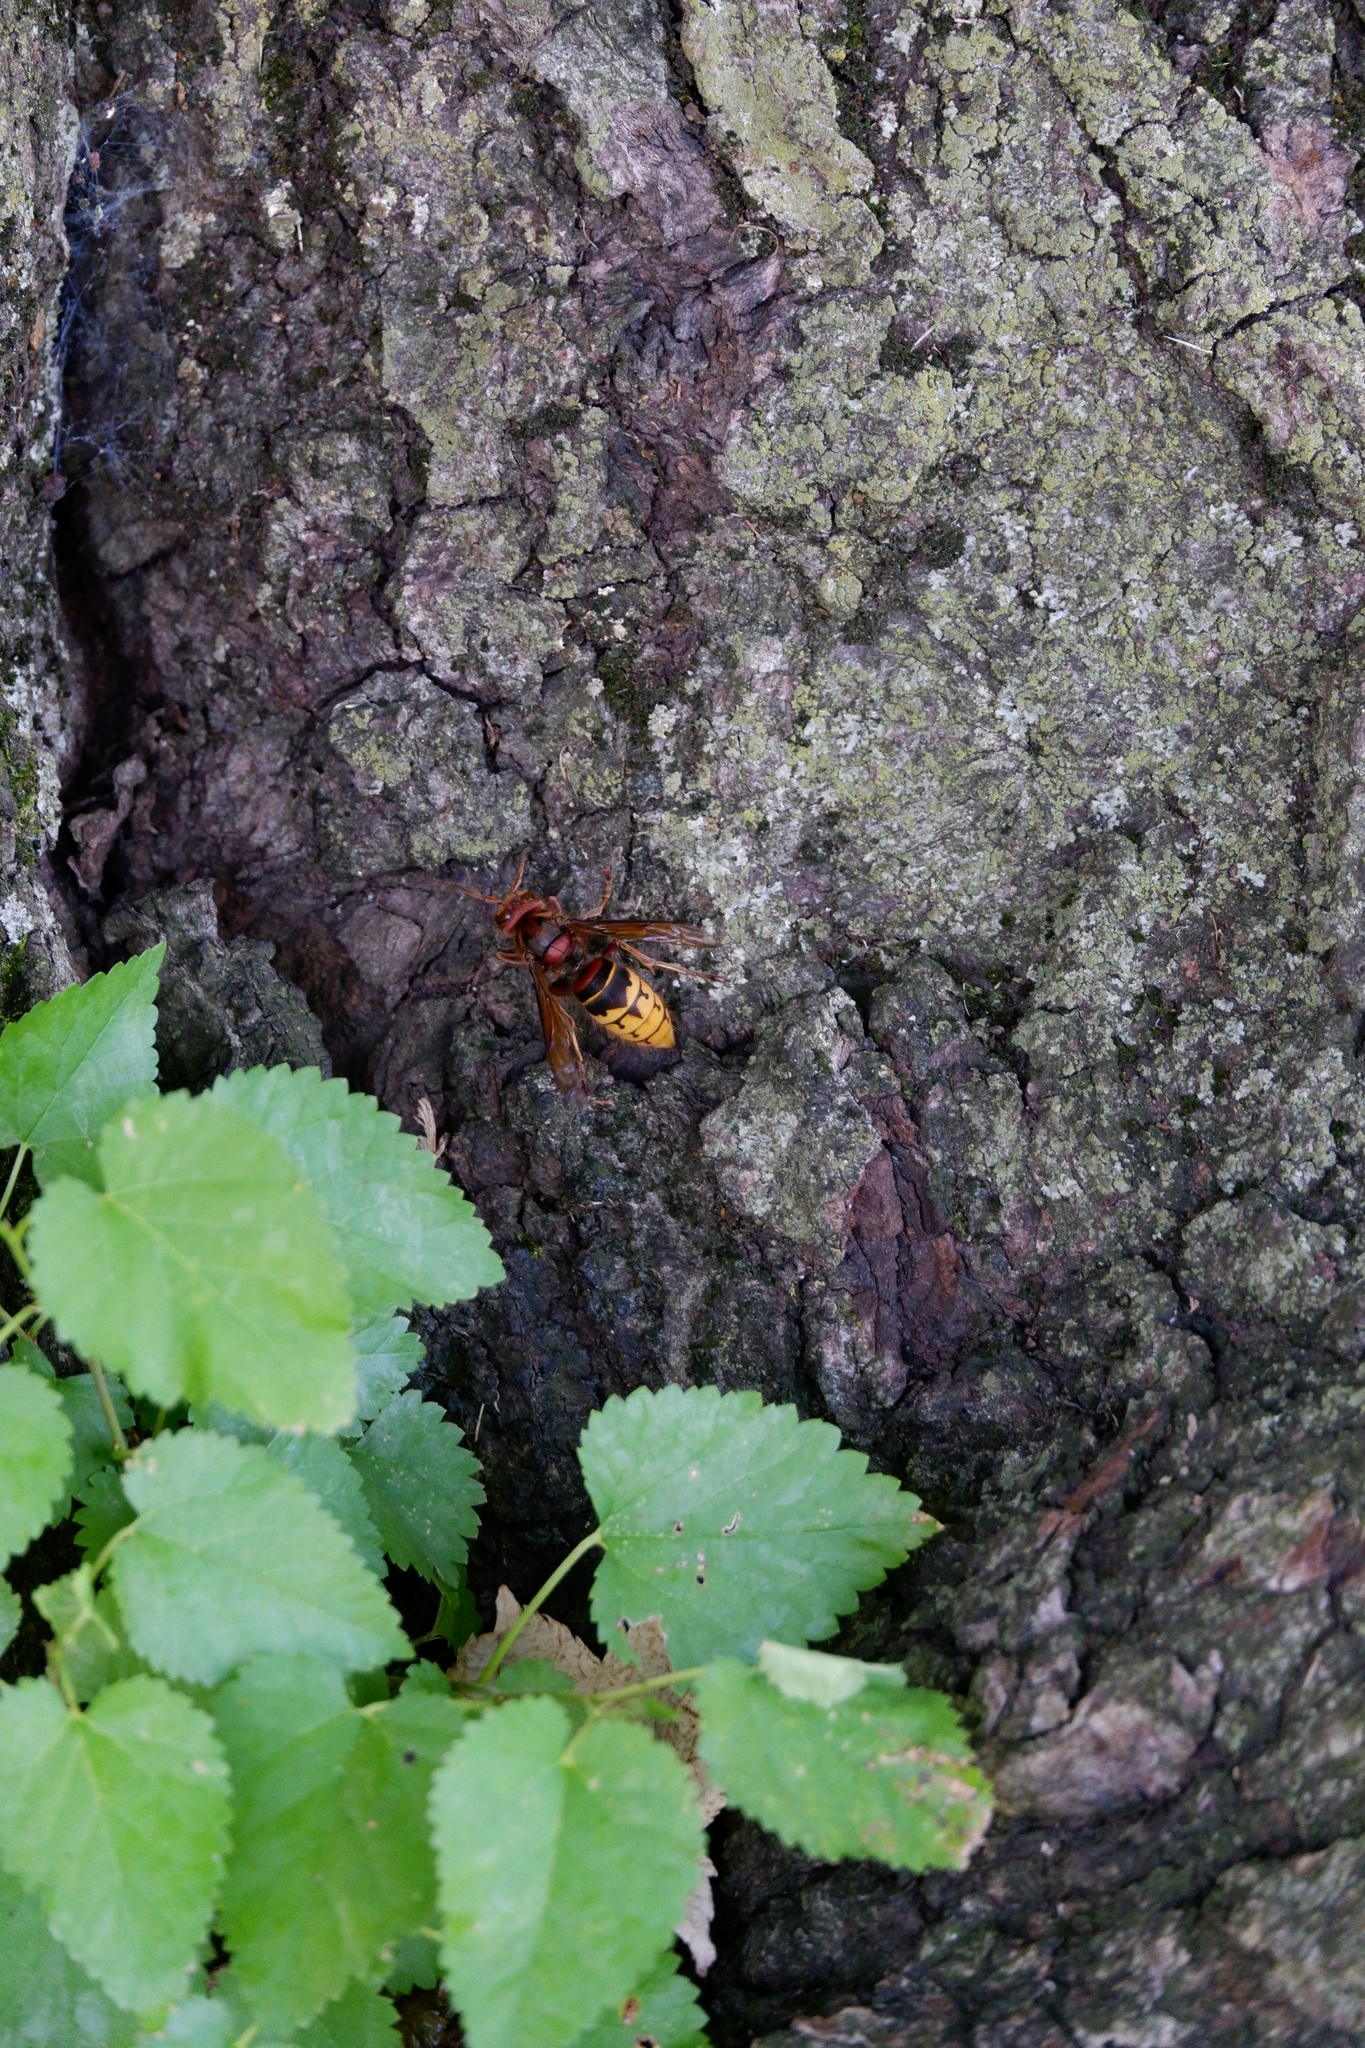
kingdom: Animalia
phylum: Arthropoda
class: Insecta
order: Hymenoptera
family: Vespidae
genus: Vespa
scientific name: Vespa crabro
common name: Hornet
